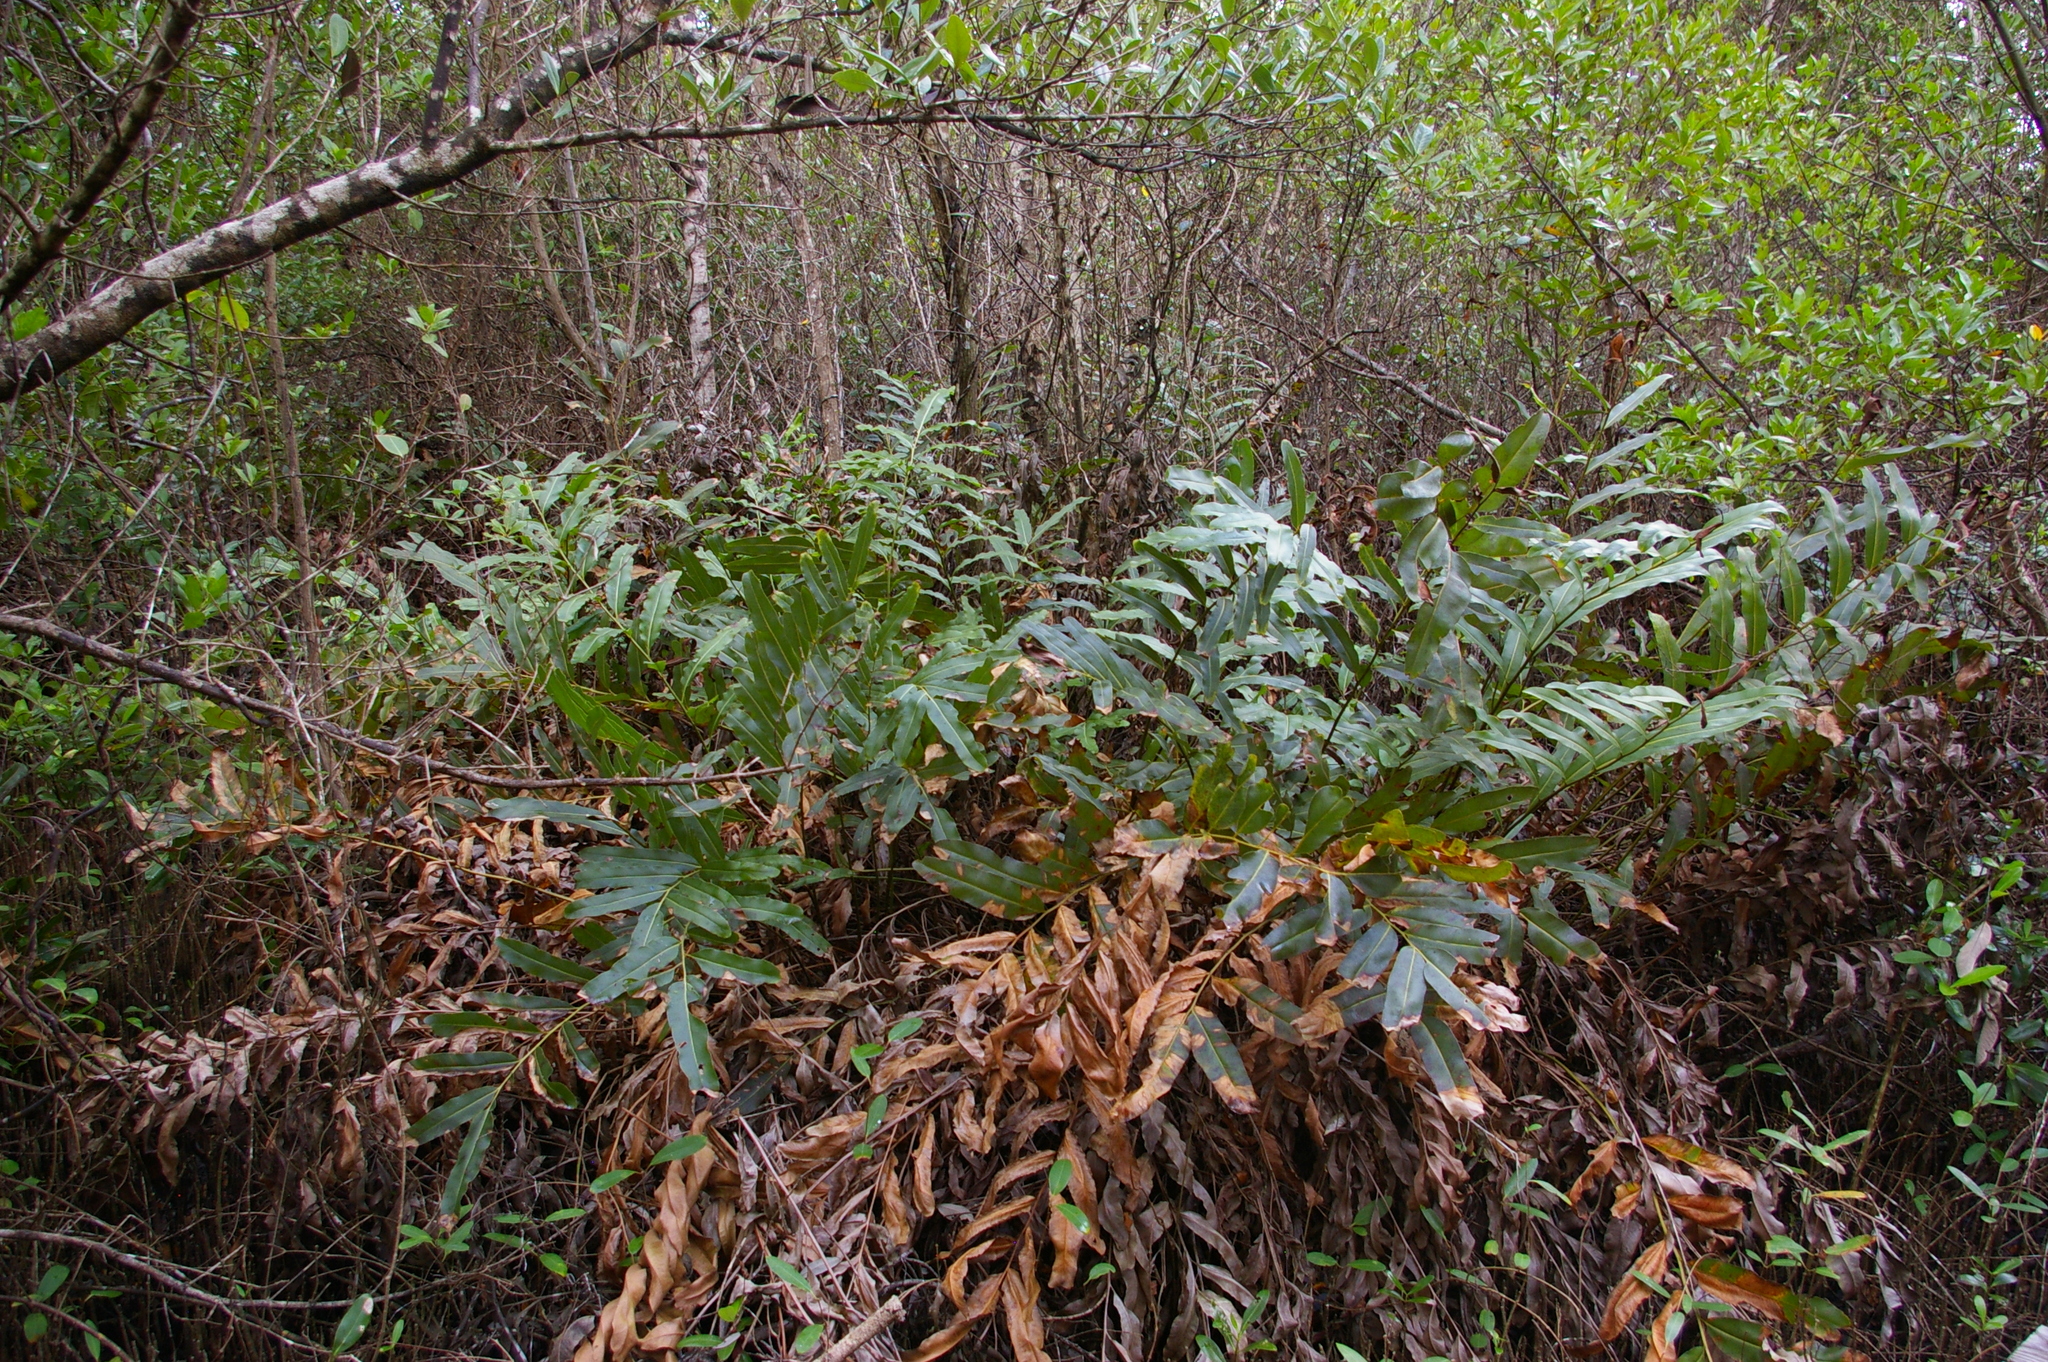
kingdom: Plantae
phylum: Tracheophyta
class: Polypodiopsida
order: Polypodiales
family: Pteridaceae
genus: Acrostichum
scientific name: Acrostichum aureum
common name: Leather fern
